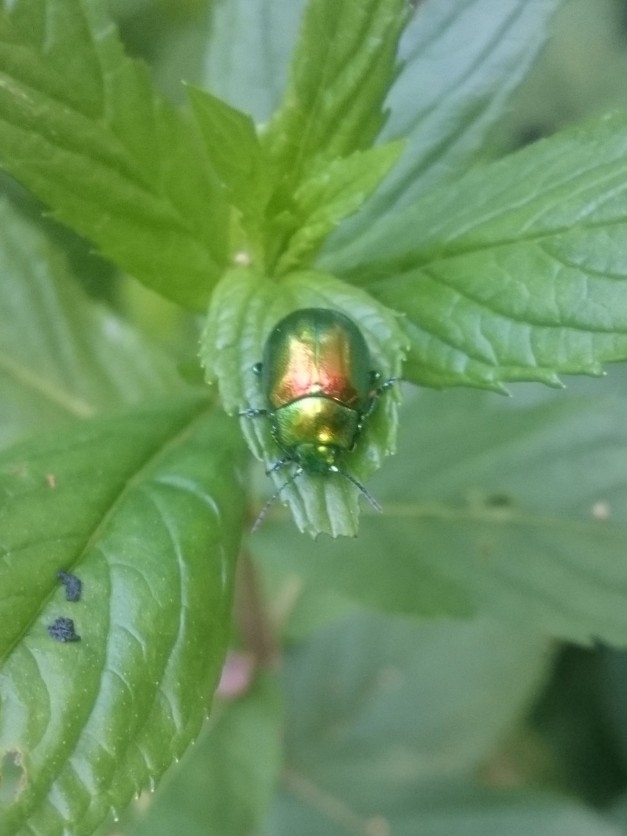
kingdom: Animalia
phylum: Arthropoda
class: Insecta
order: Coleoptera
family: Chrysomelidae
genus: Chrysolina
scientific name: Chrysolina graminis
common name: Tansey beetle
